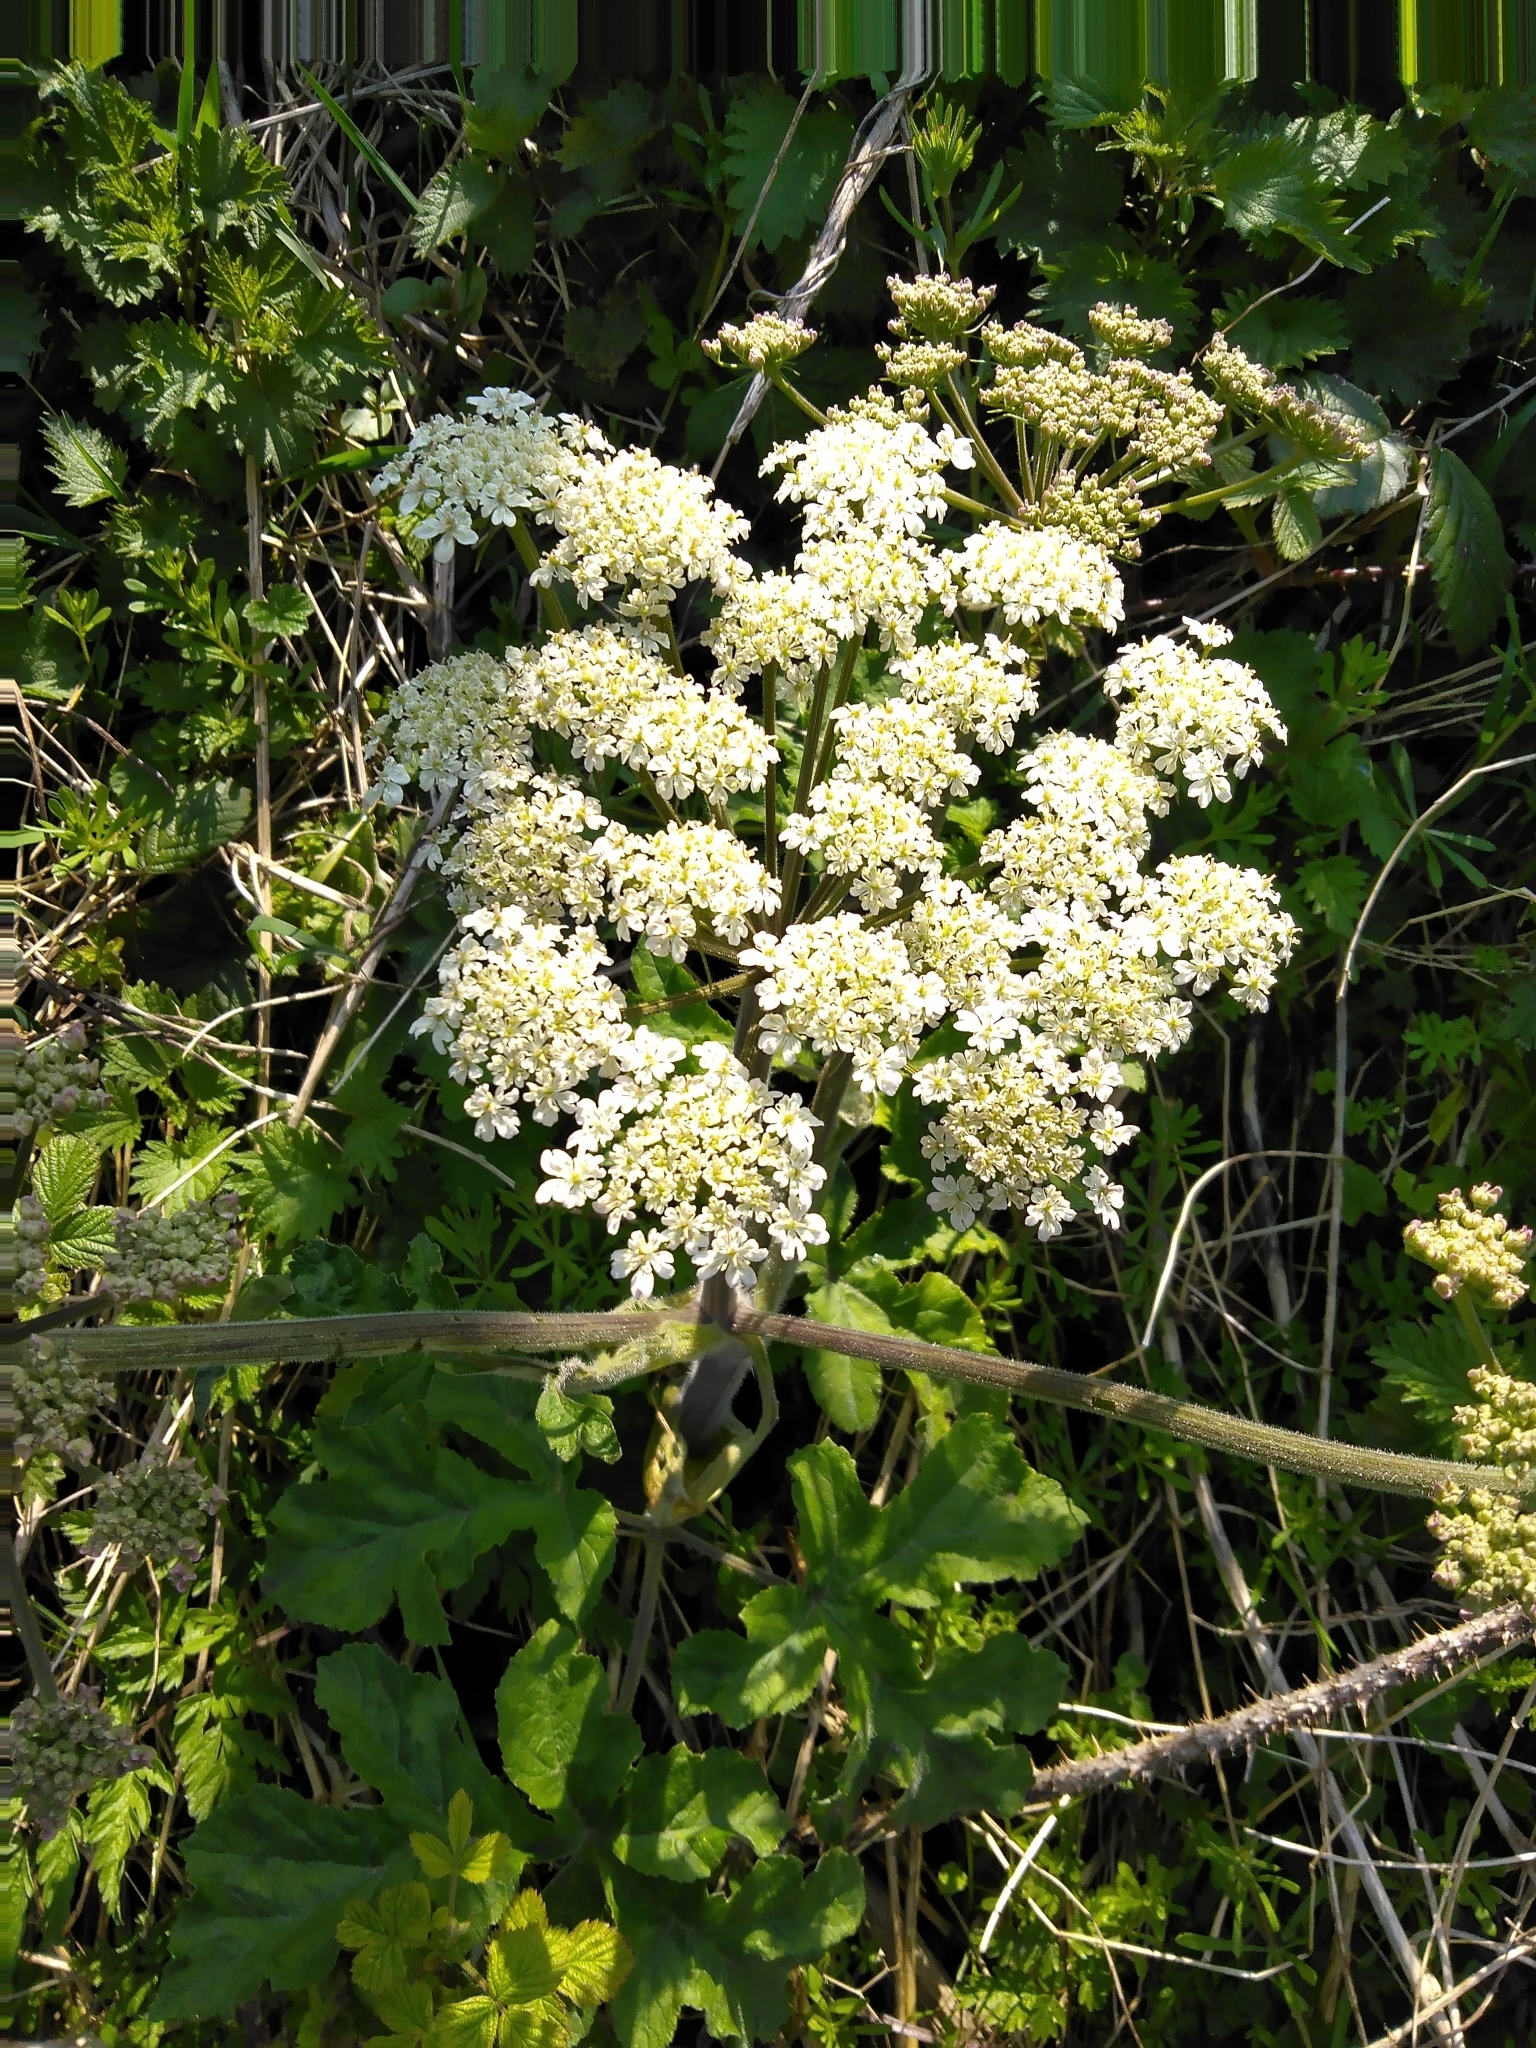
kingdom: Plantae
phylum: Tracheophyta
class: Magnoliopsida
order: Apiales
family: Apiaceae
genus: Heracleum
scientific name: Heracleum sphondylium
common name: Hogweed
